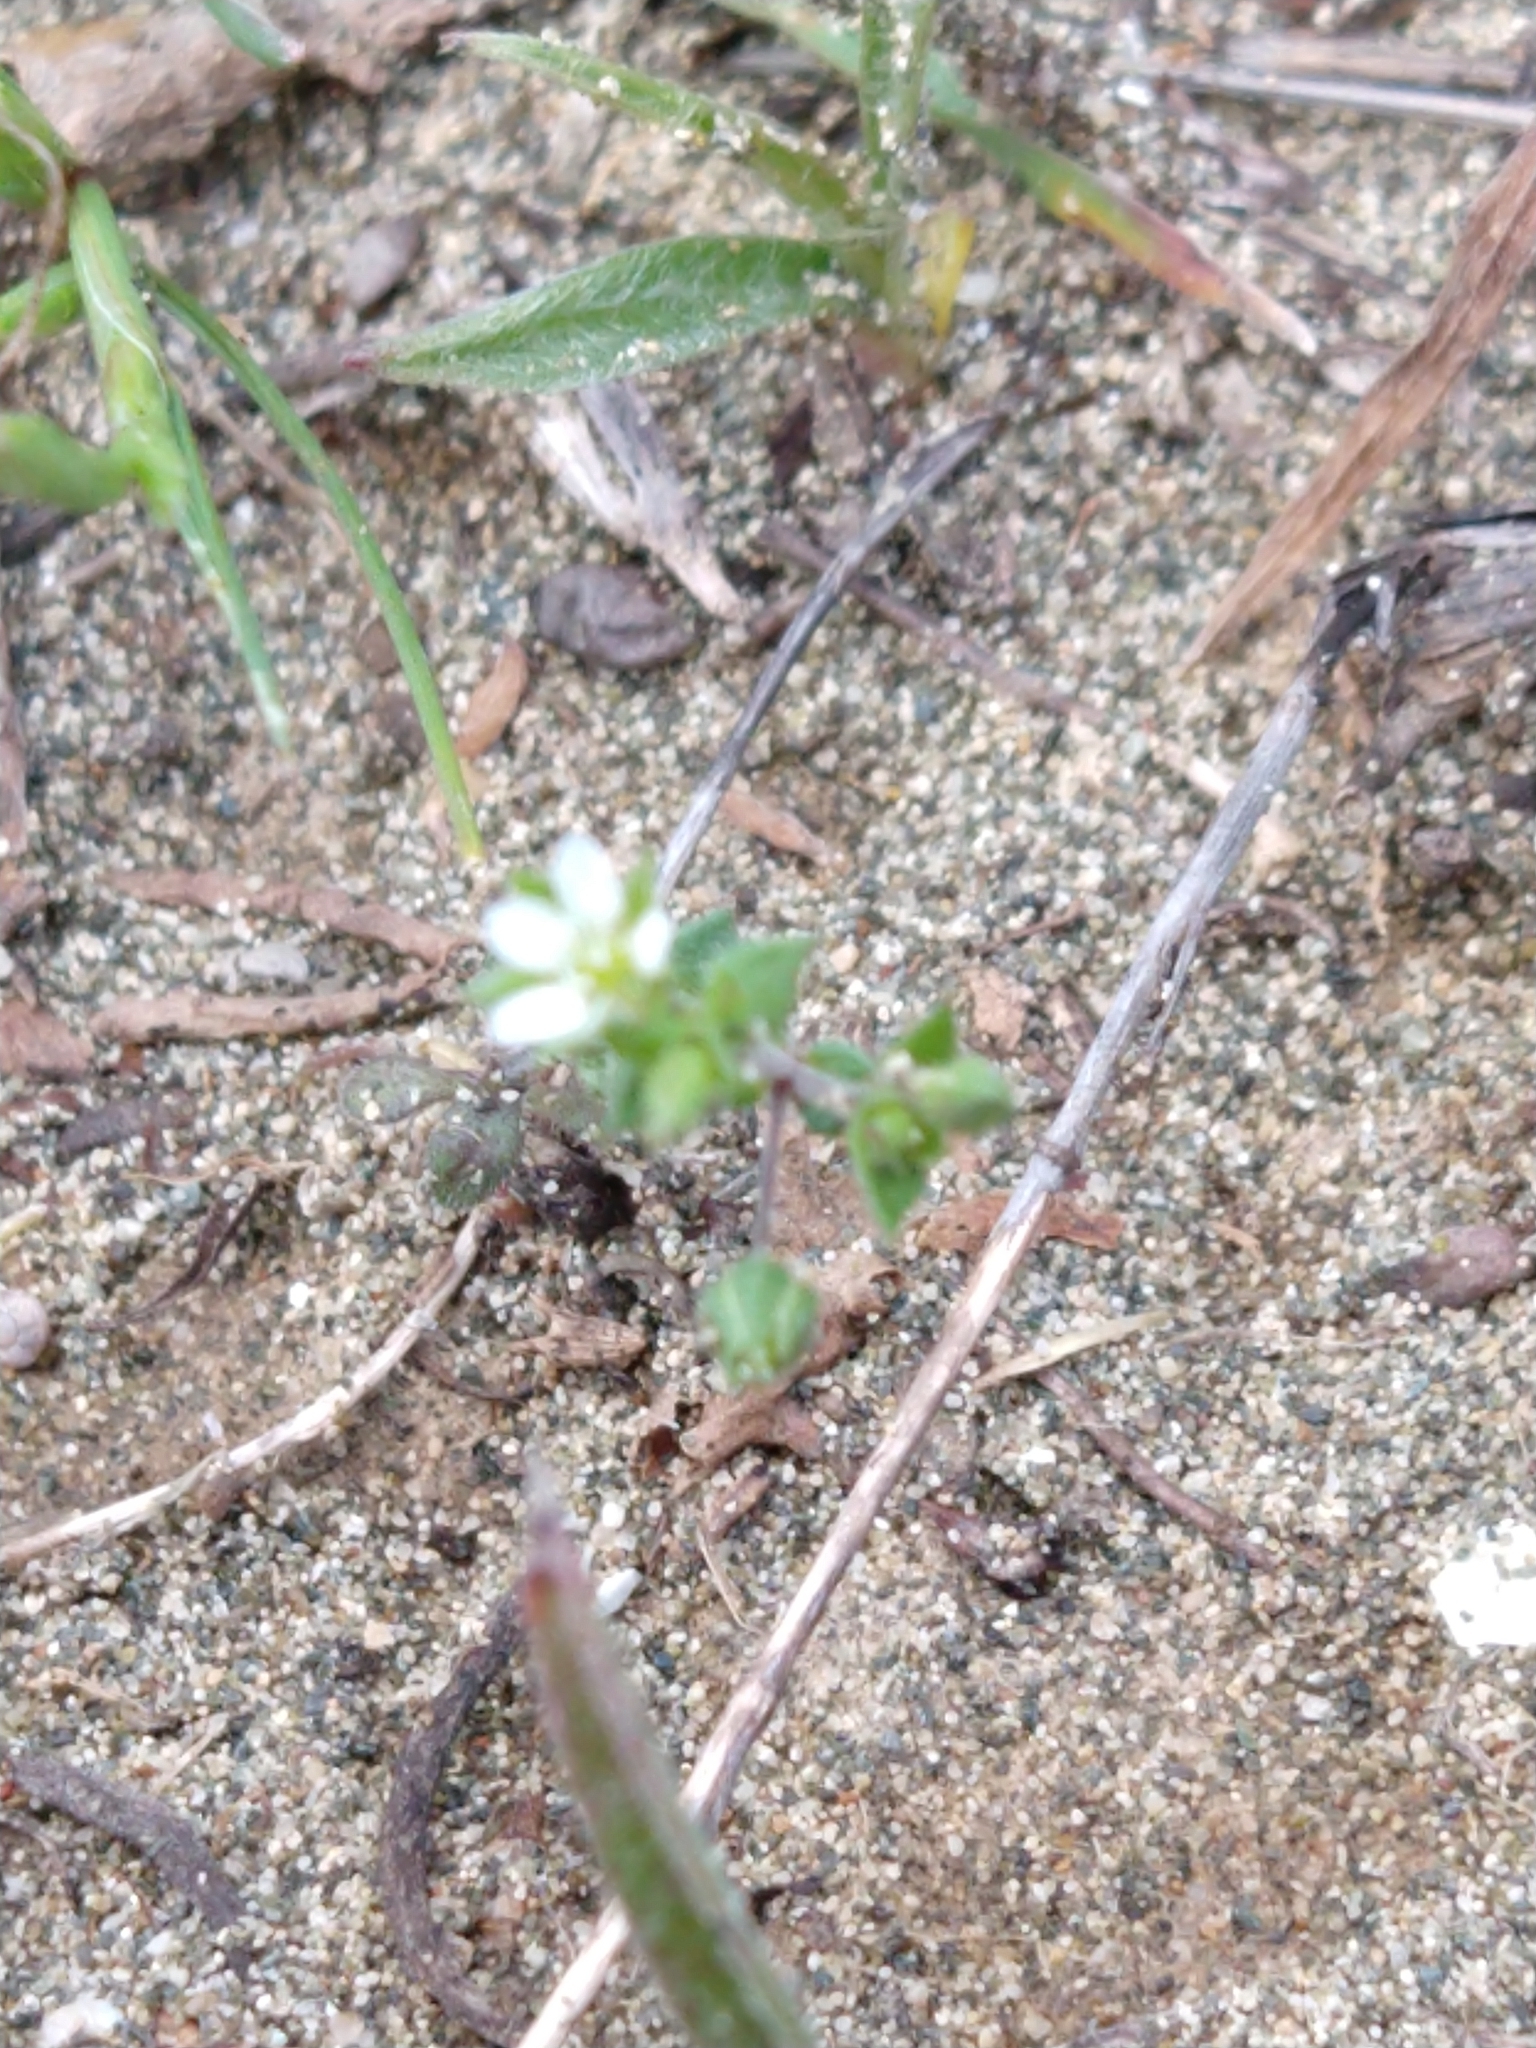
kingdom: Plantae
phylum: Tracheophyta
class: Magnoliopsida
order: Caryophyllales
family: Caryophyllaceae
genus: Arenaria
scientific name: Arenaria serpyllifolia
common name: Thyme-leaved sandwort
